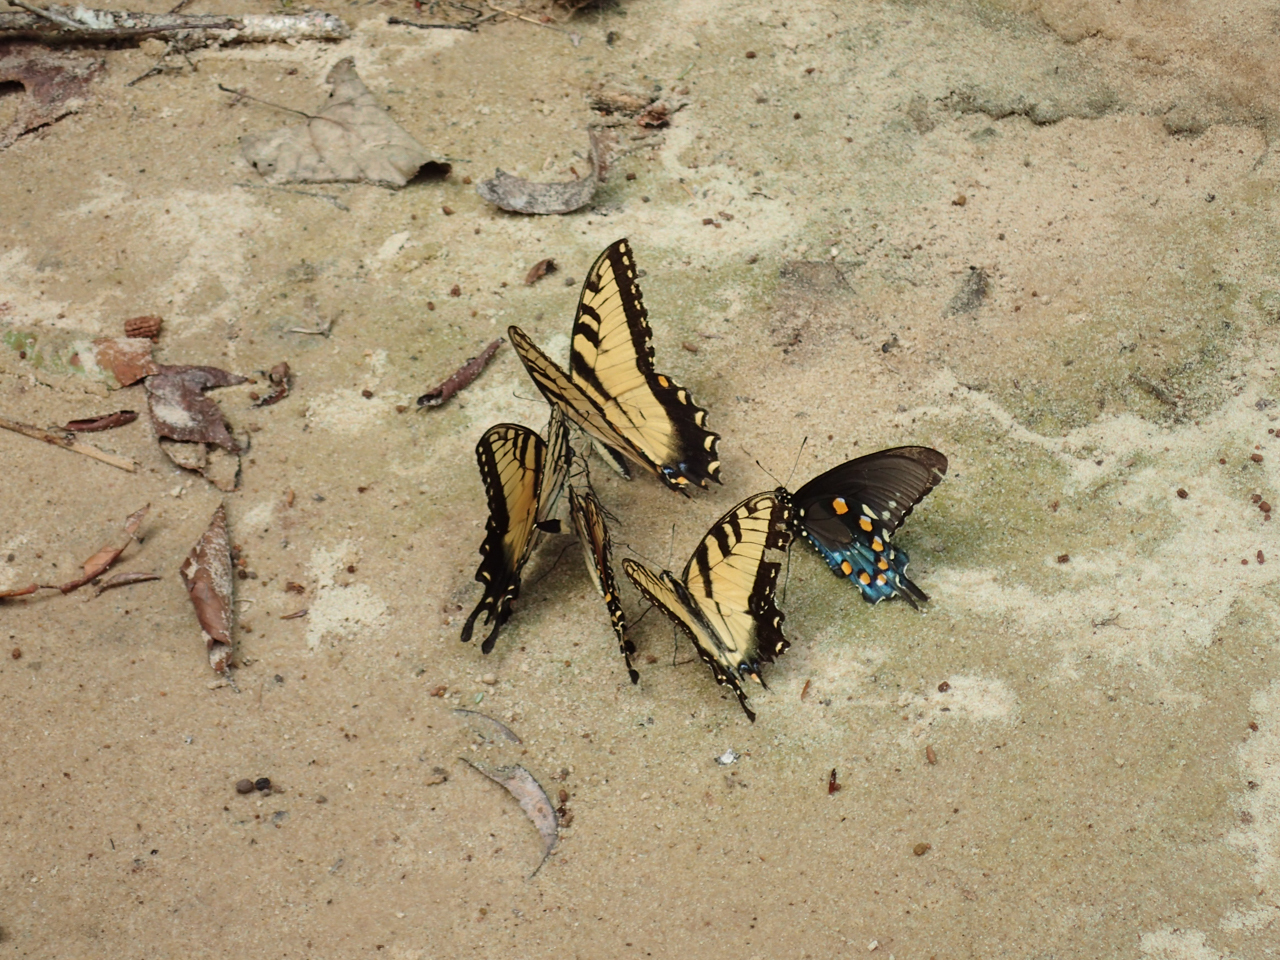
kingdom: Animalia
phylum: Arthropoda
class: Insecta
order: Lepidoptera
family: Papilionidae
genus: Battus
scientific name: Battus philenor
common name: Pipevine swallowtail
